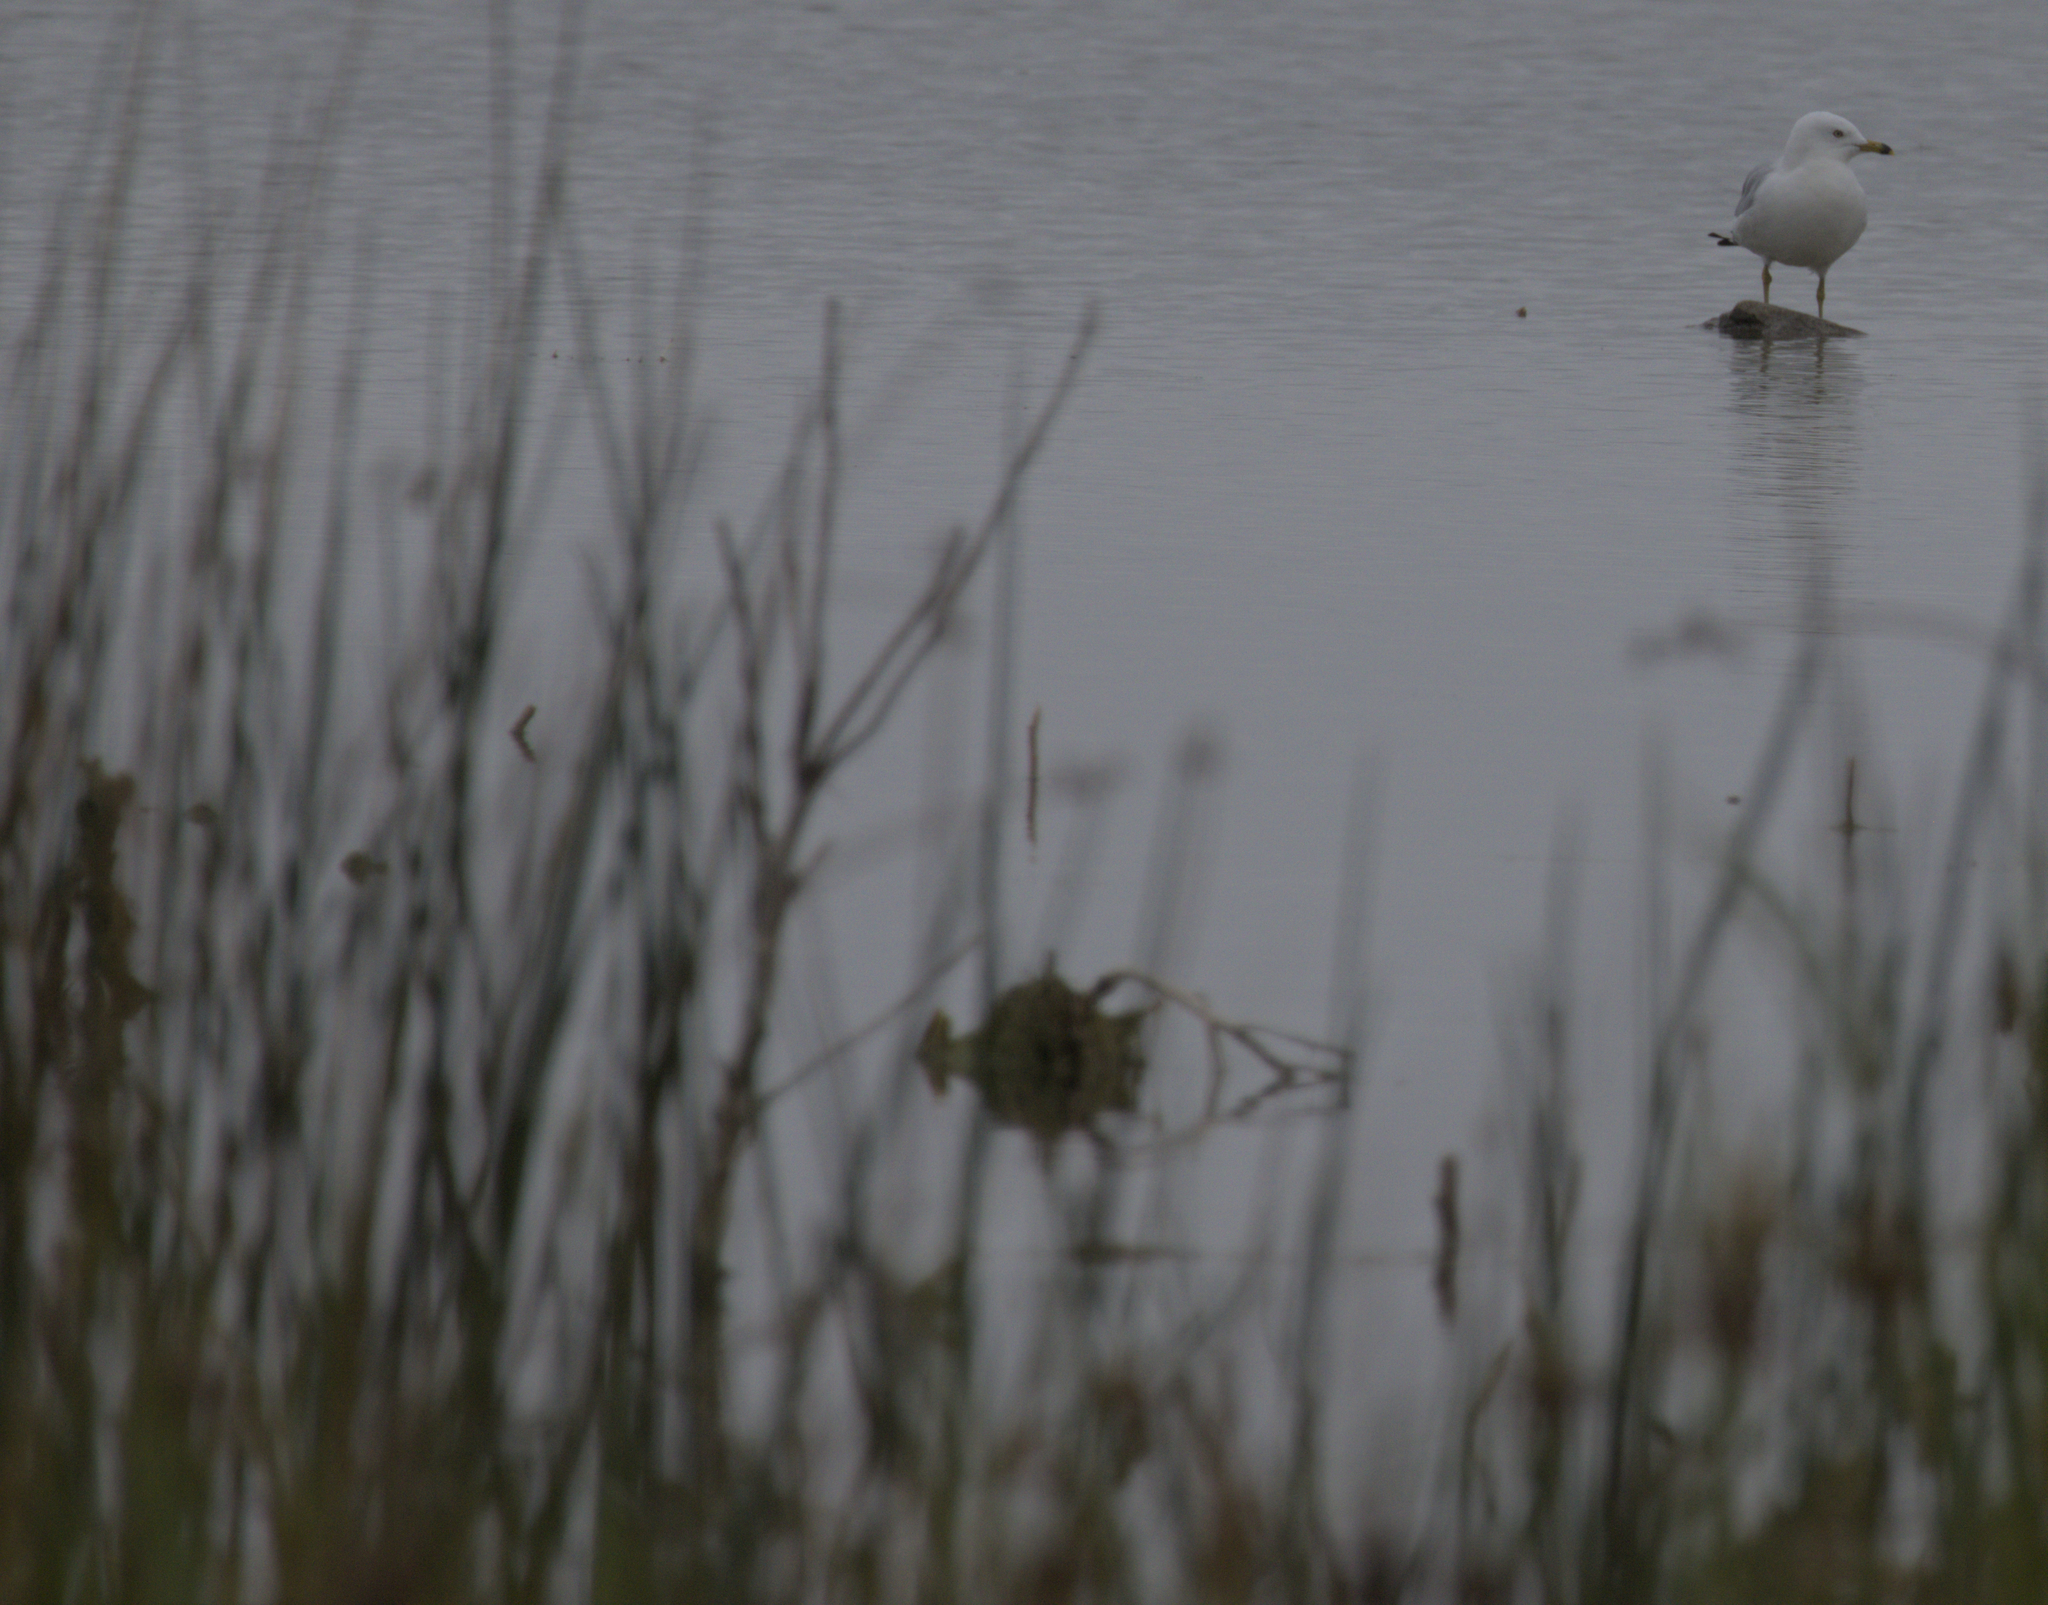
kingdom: Animalia
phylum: Chordata
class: Aves
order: Charadriiformes
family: Laridae
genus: Larus
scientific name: Larus delawarensis
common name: Ring-billed gull
